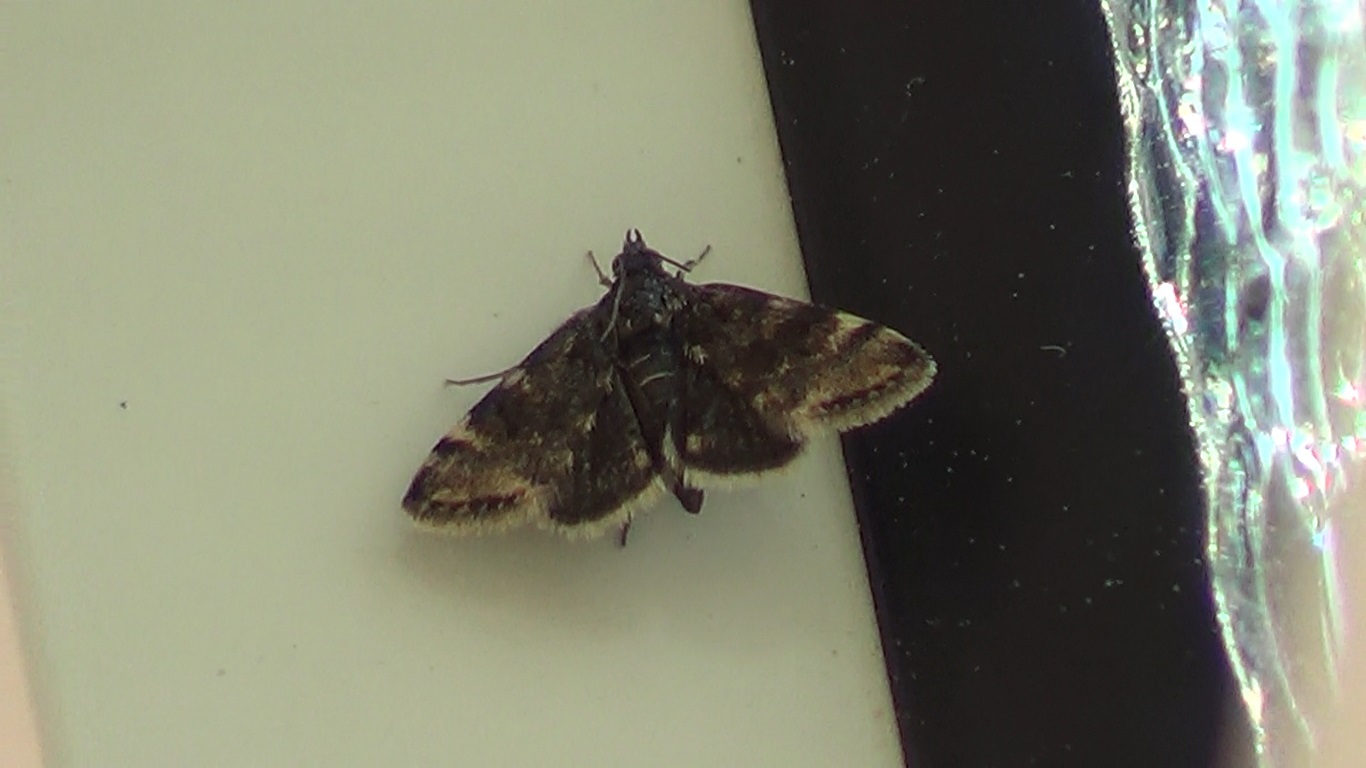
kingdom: Animalia
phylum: Arthropoda
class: Insecta
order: Lepidoptera
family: Crambidae
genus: Noctuelia
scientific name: Noctuelia Aporodes floralis
